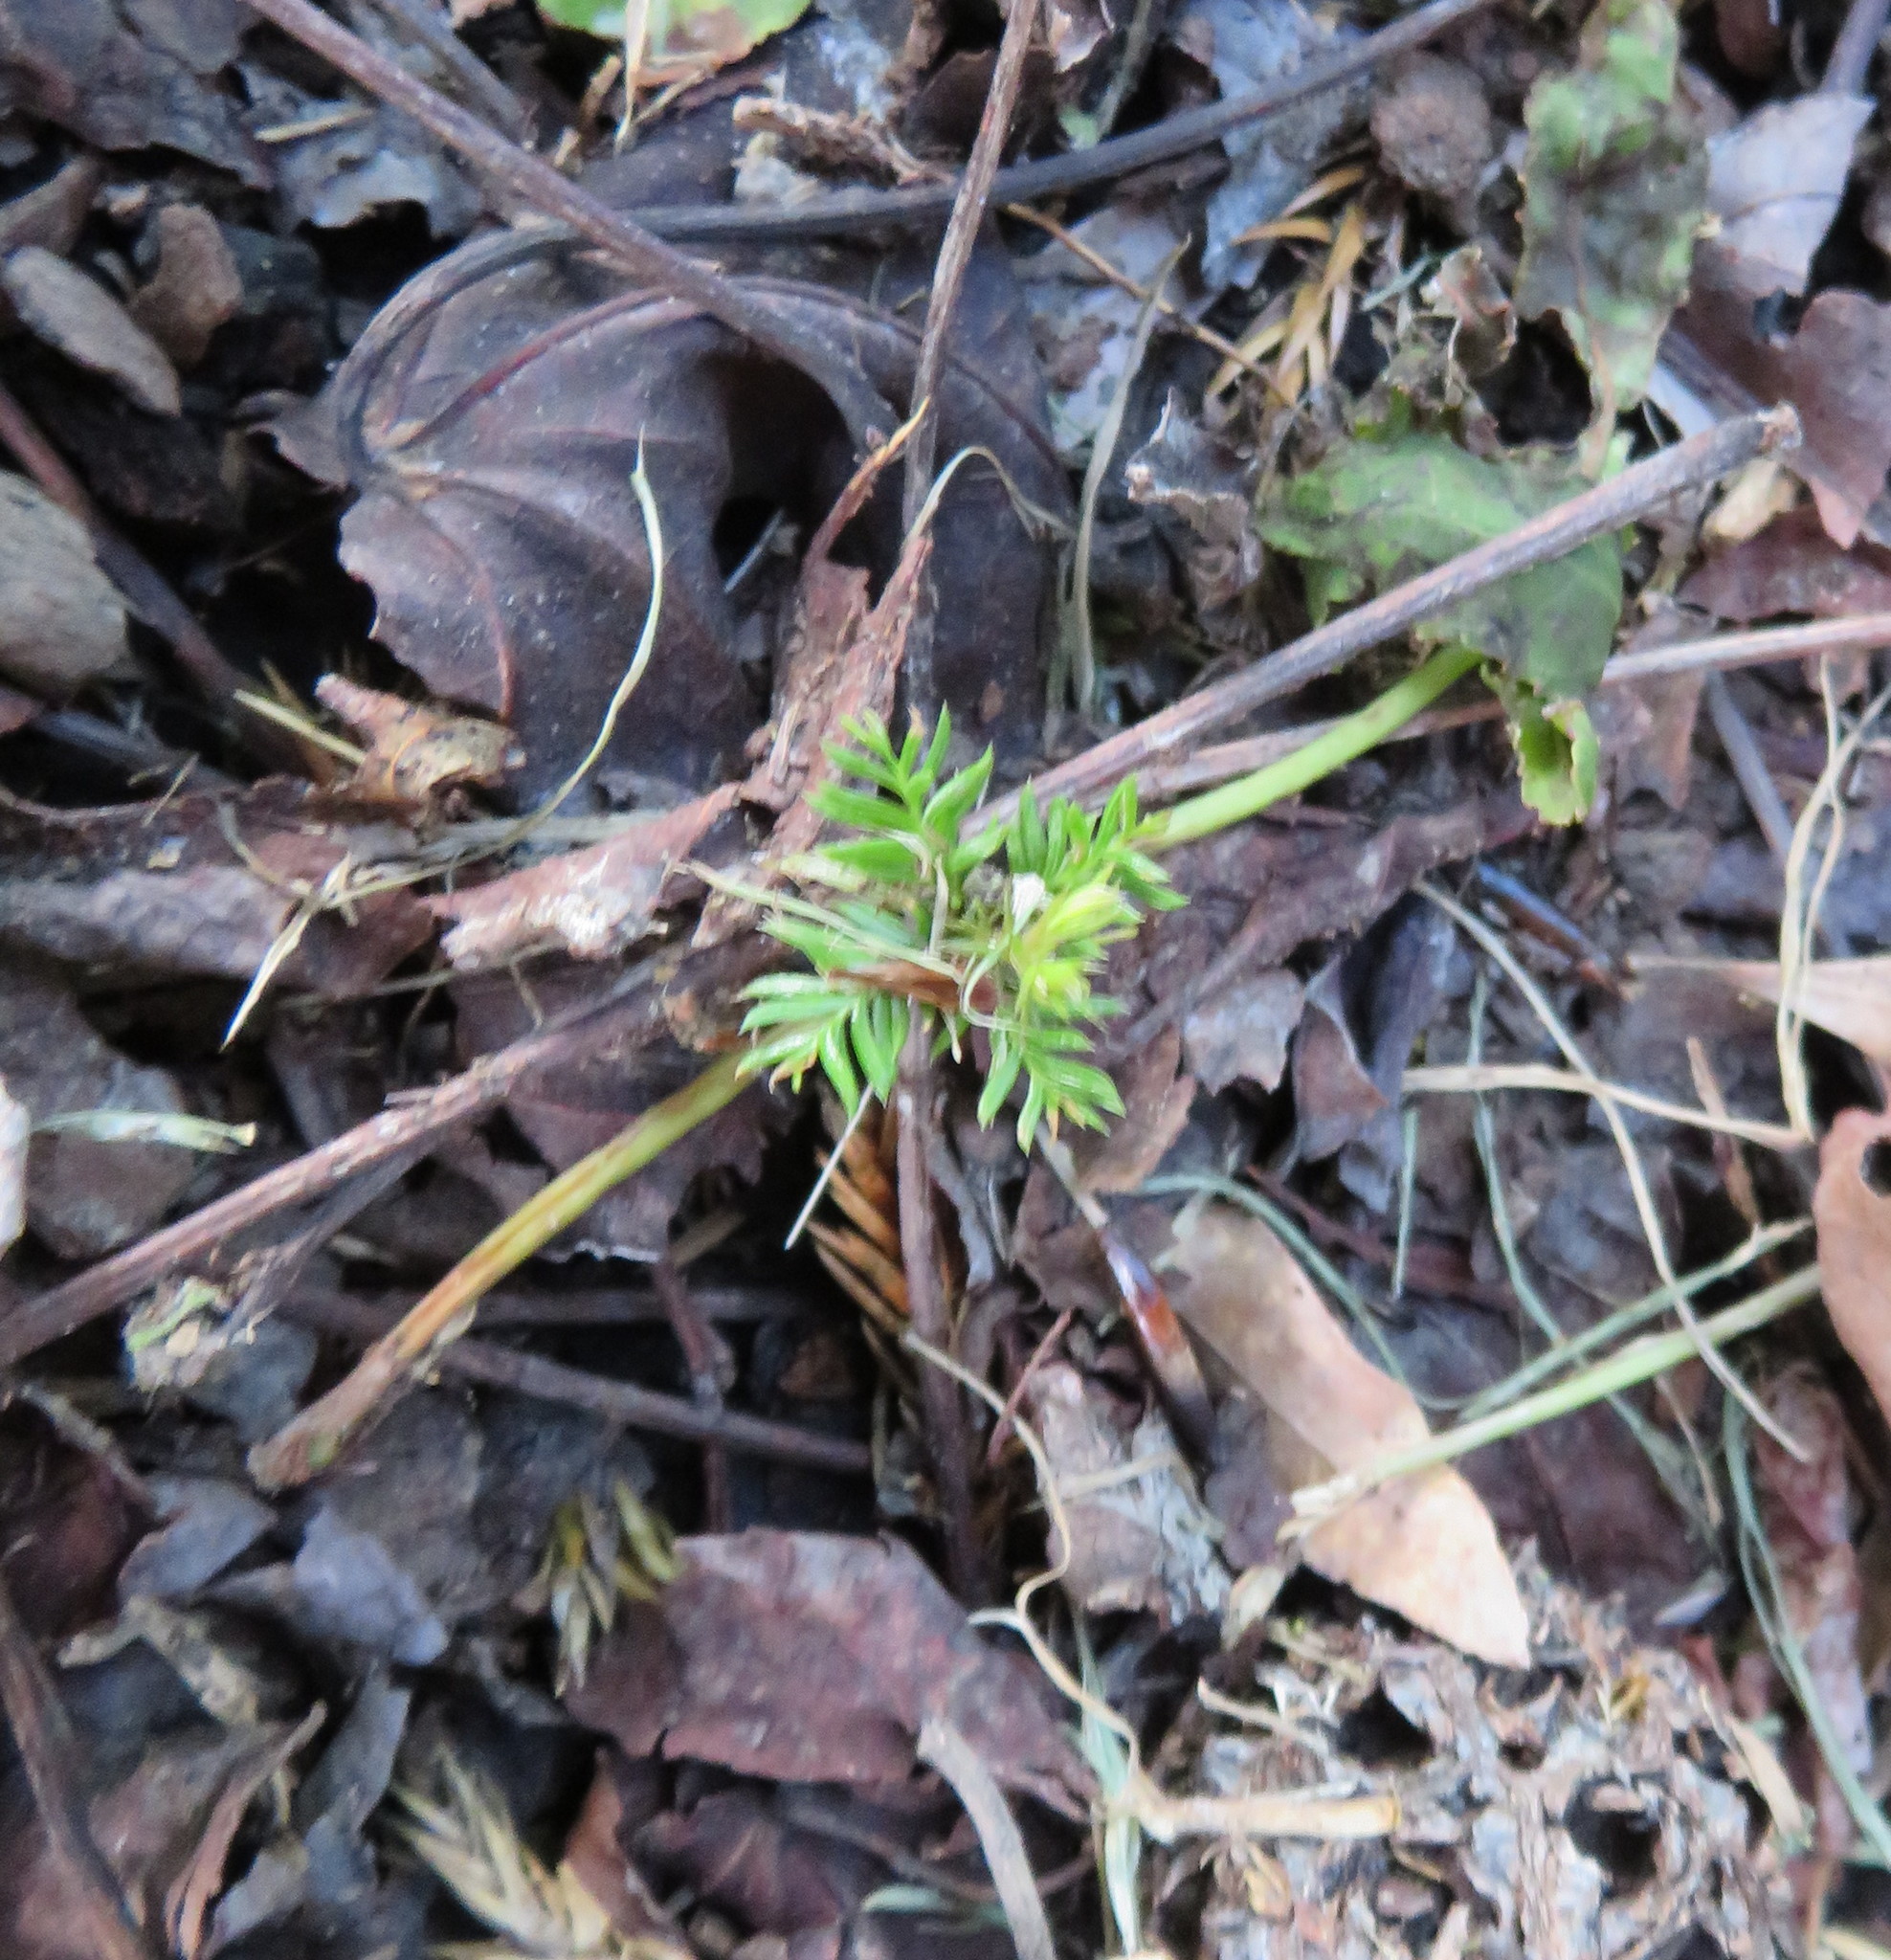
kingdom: Plantae
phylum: Tracheophyta
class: Pinopsida
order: Pinales
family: Podocarpaceae
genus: Dacrycarpus
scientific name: Dacrycarpus dacrydioides
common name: White pine
